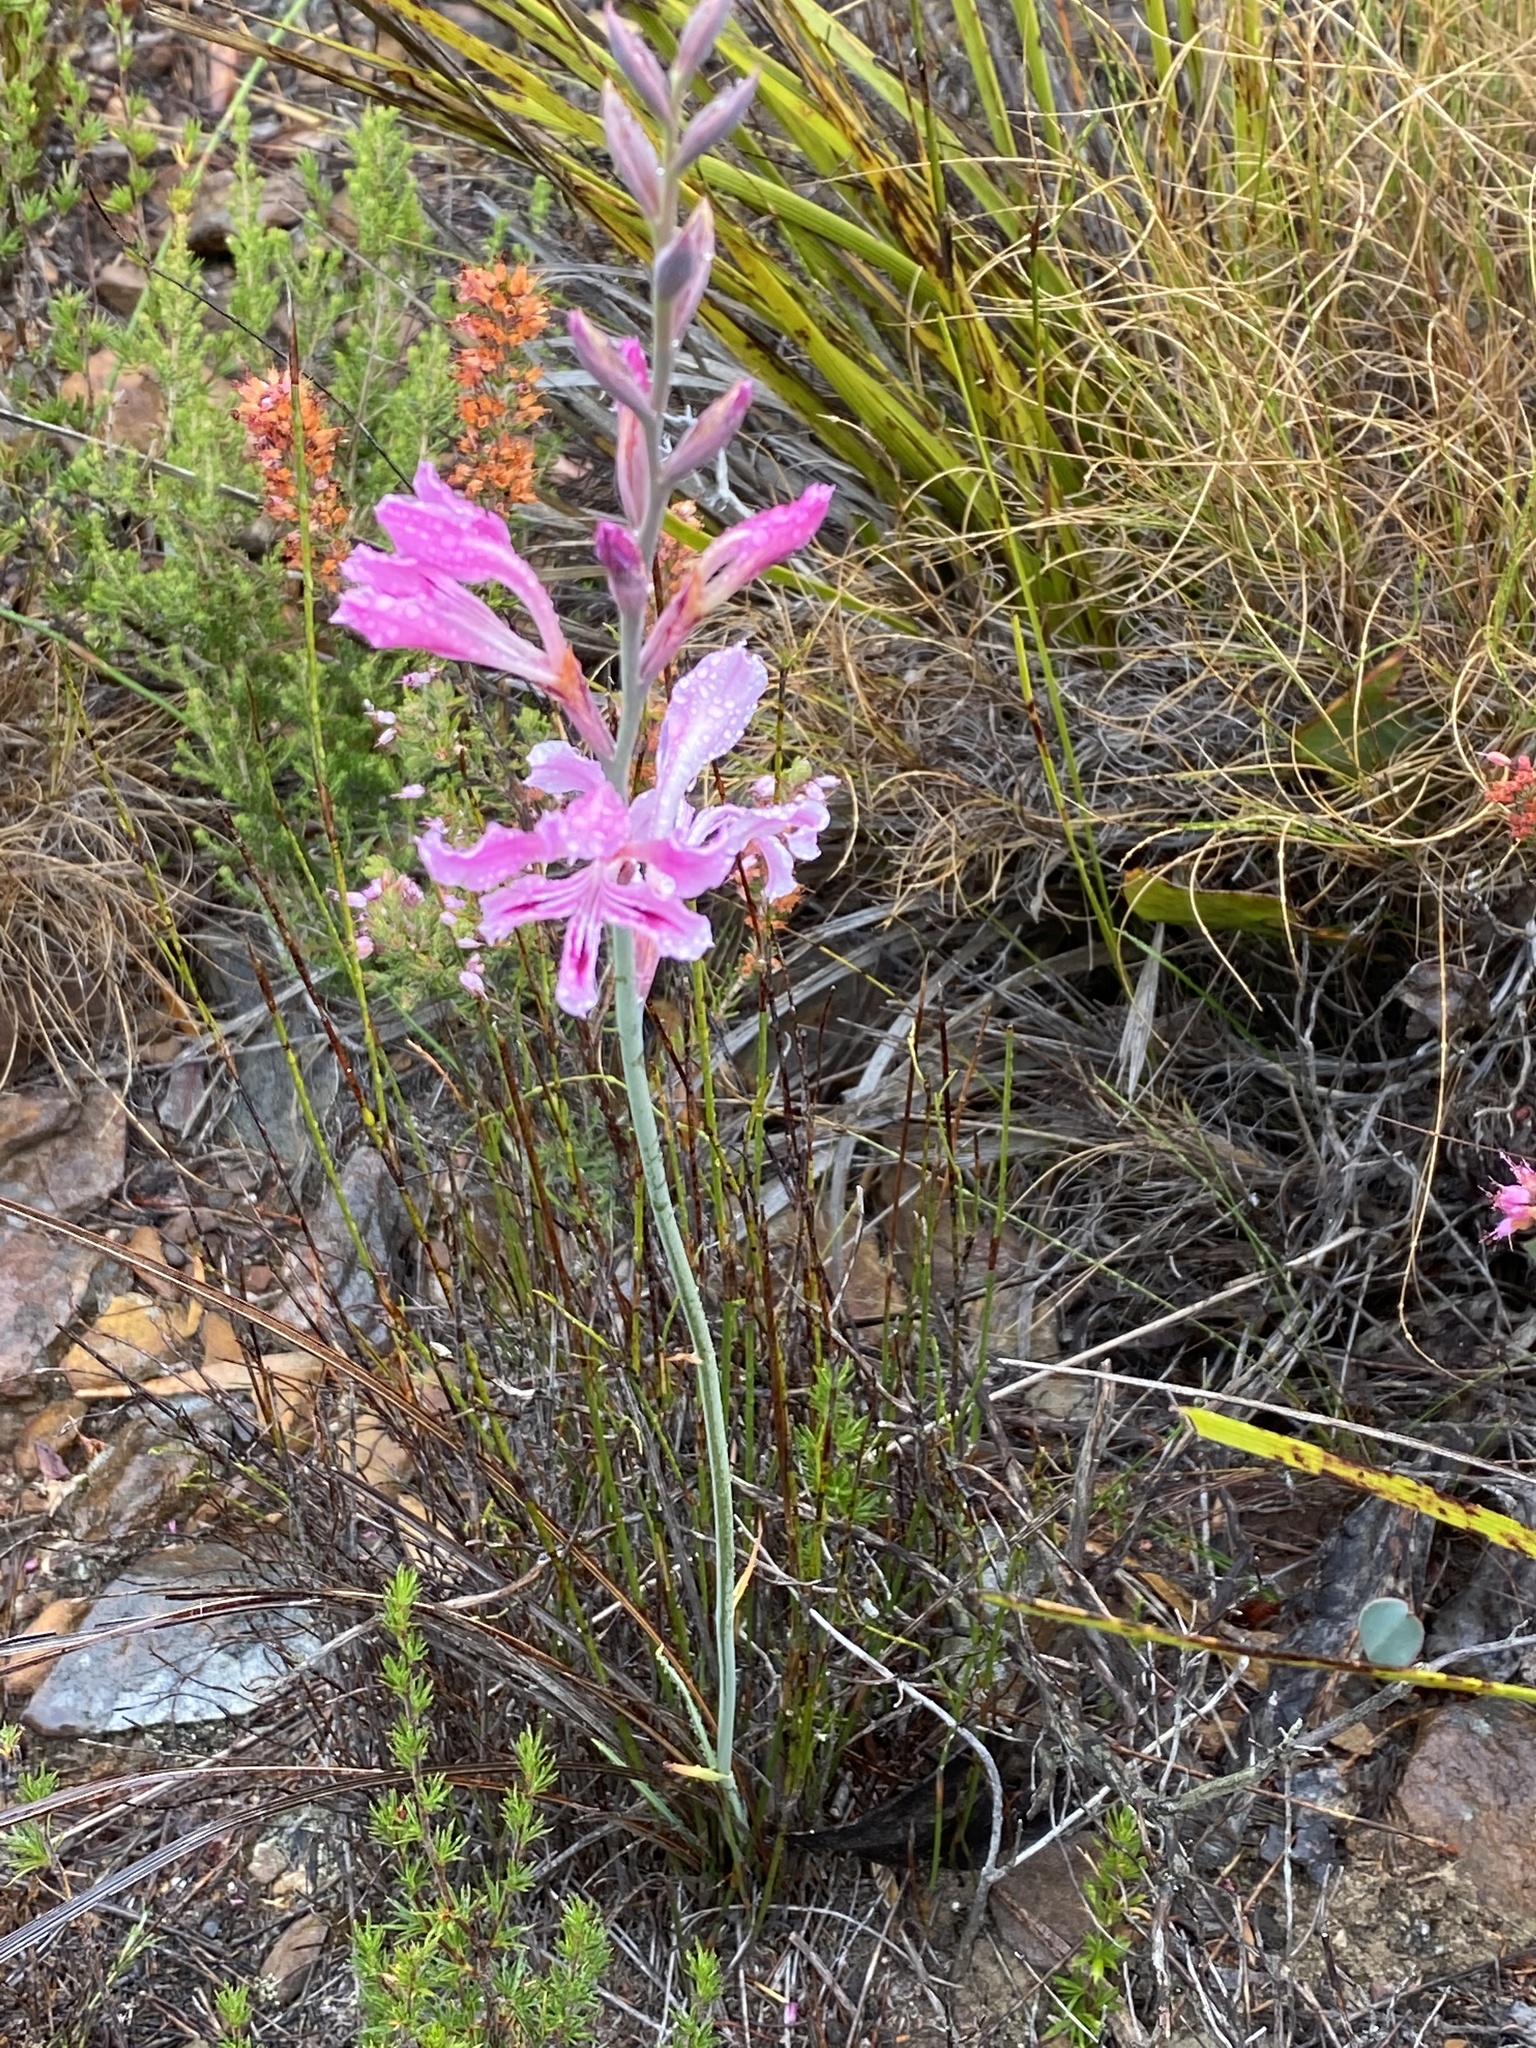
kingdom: Plantae
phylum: Tracheophyta
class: Liliopsida
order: Asparagales
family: Iridaceae
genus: Tritoniopsis
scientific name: Tritoniopsis lata
